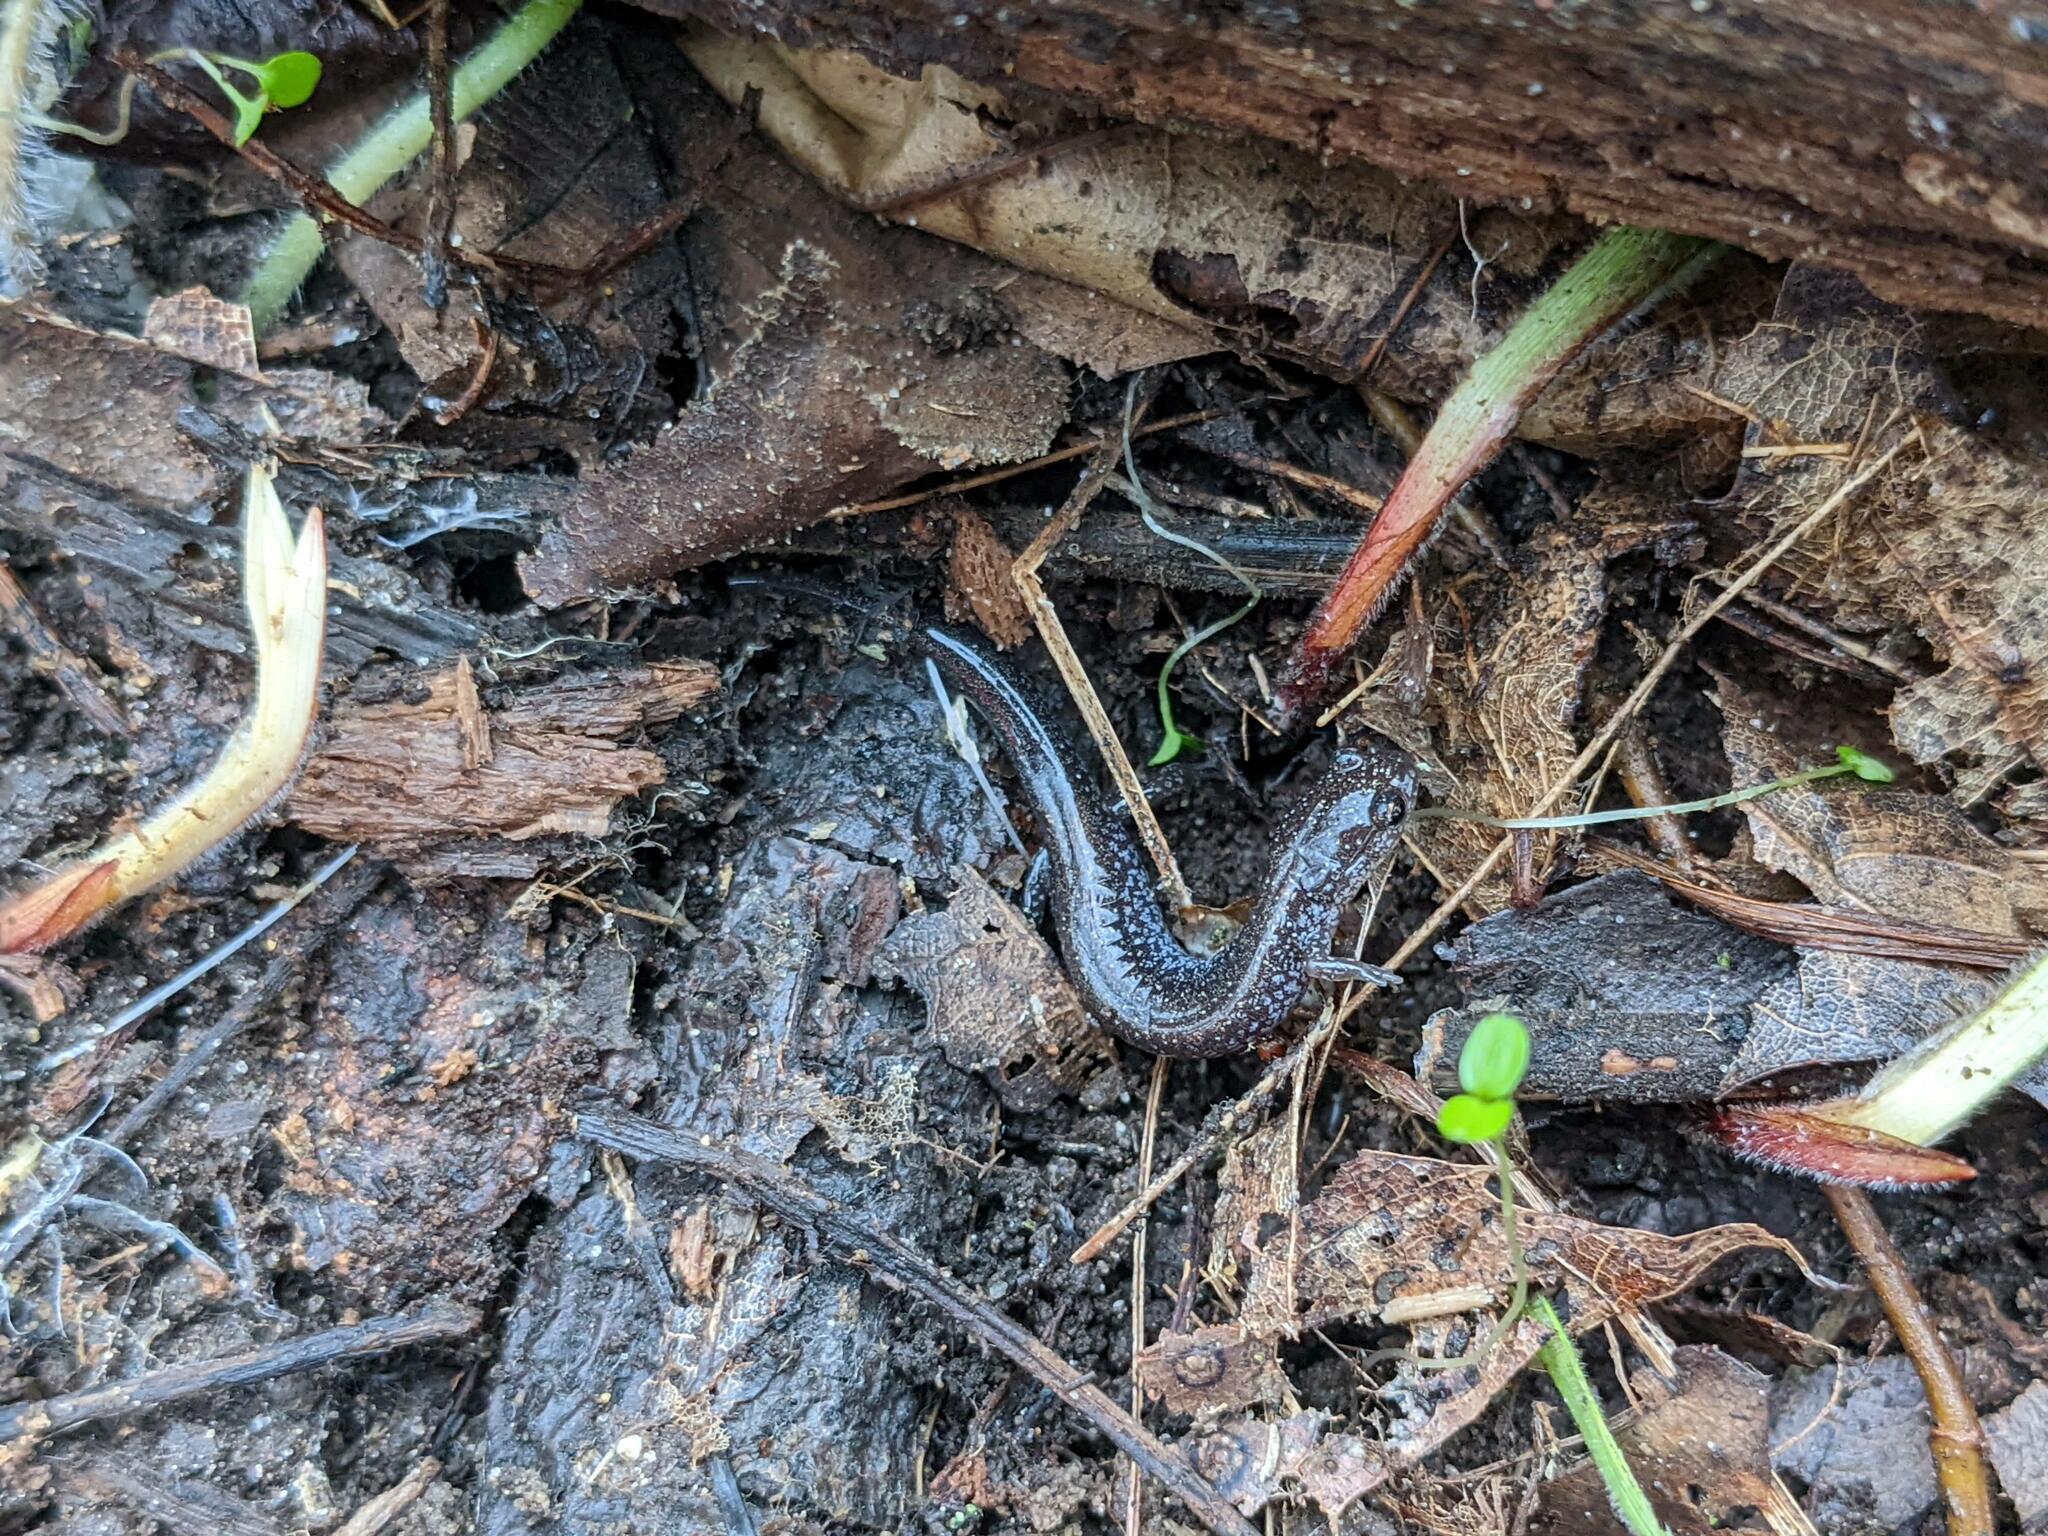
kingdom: Animalia
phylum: Chordata
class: Amphibia
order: Caudata
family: Plethodontidae
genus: Plethodon
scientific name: Plethodon cinereus
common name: Redback salamander
